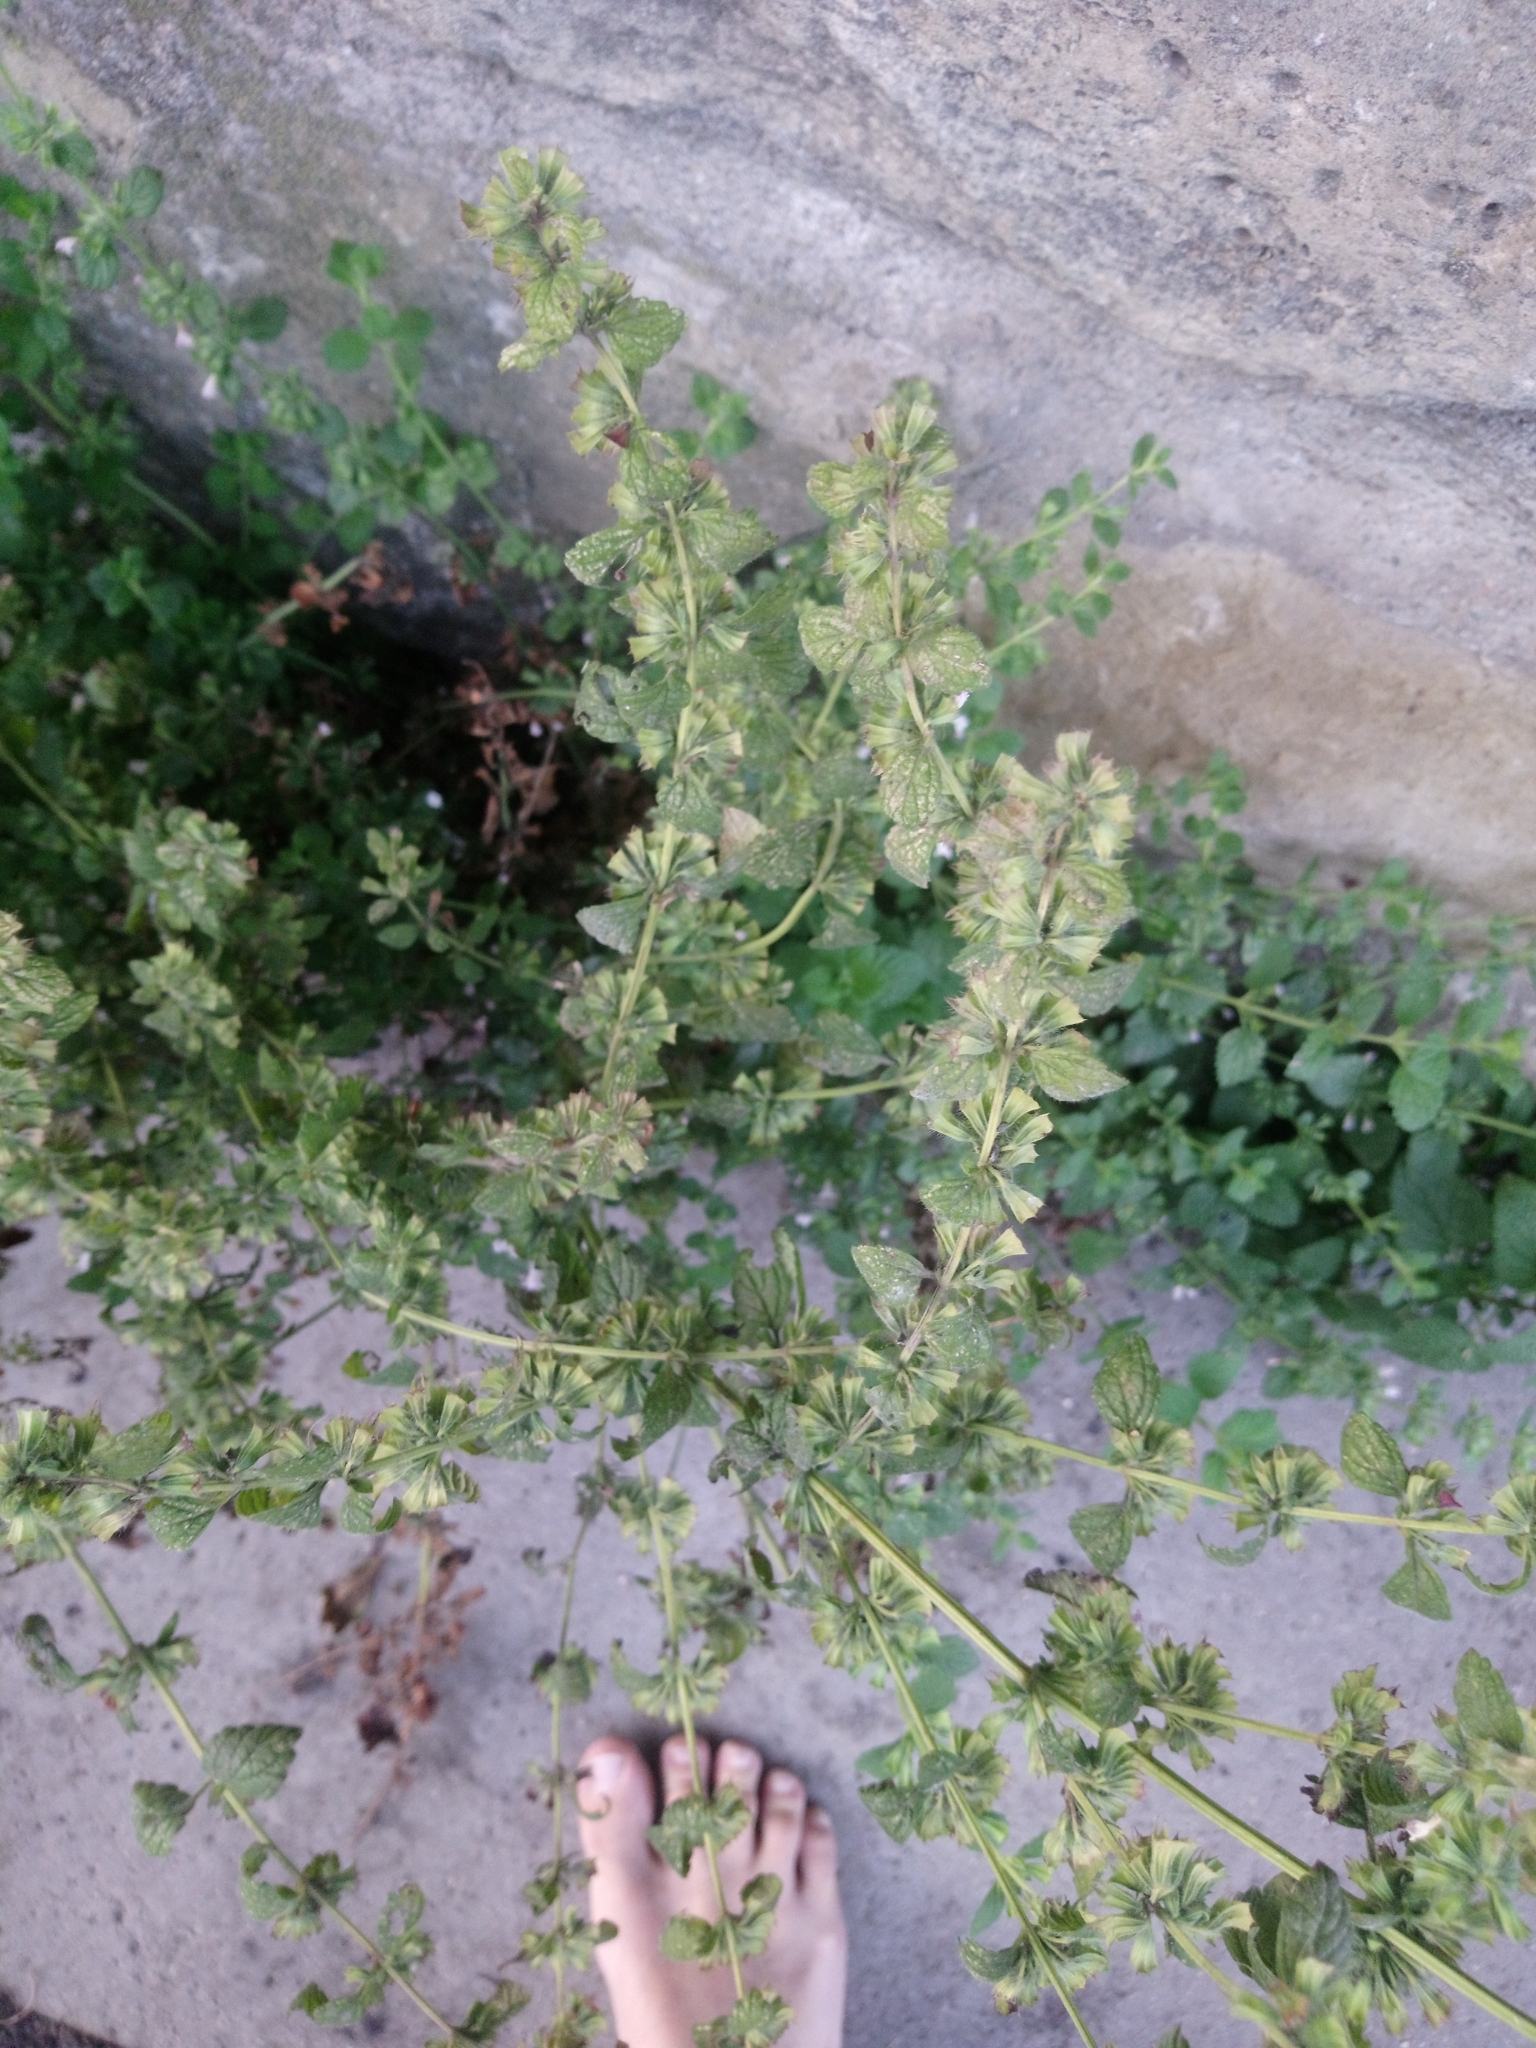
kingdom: Plantae
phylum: Tracheophyta
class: Magnoliopsida
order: Lamiales
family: Lamiaceae
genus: Melissa
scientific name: Melissa officinalis
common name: Balm
